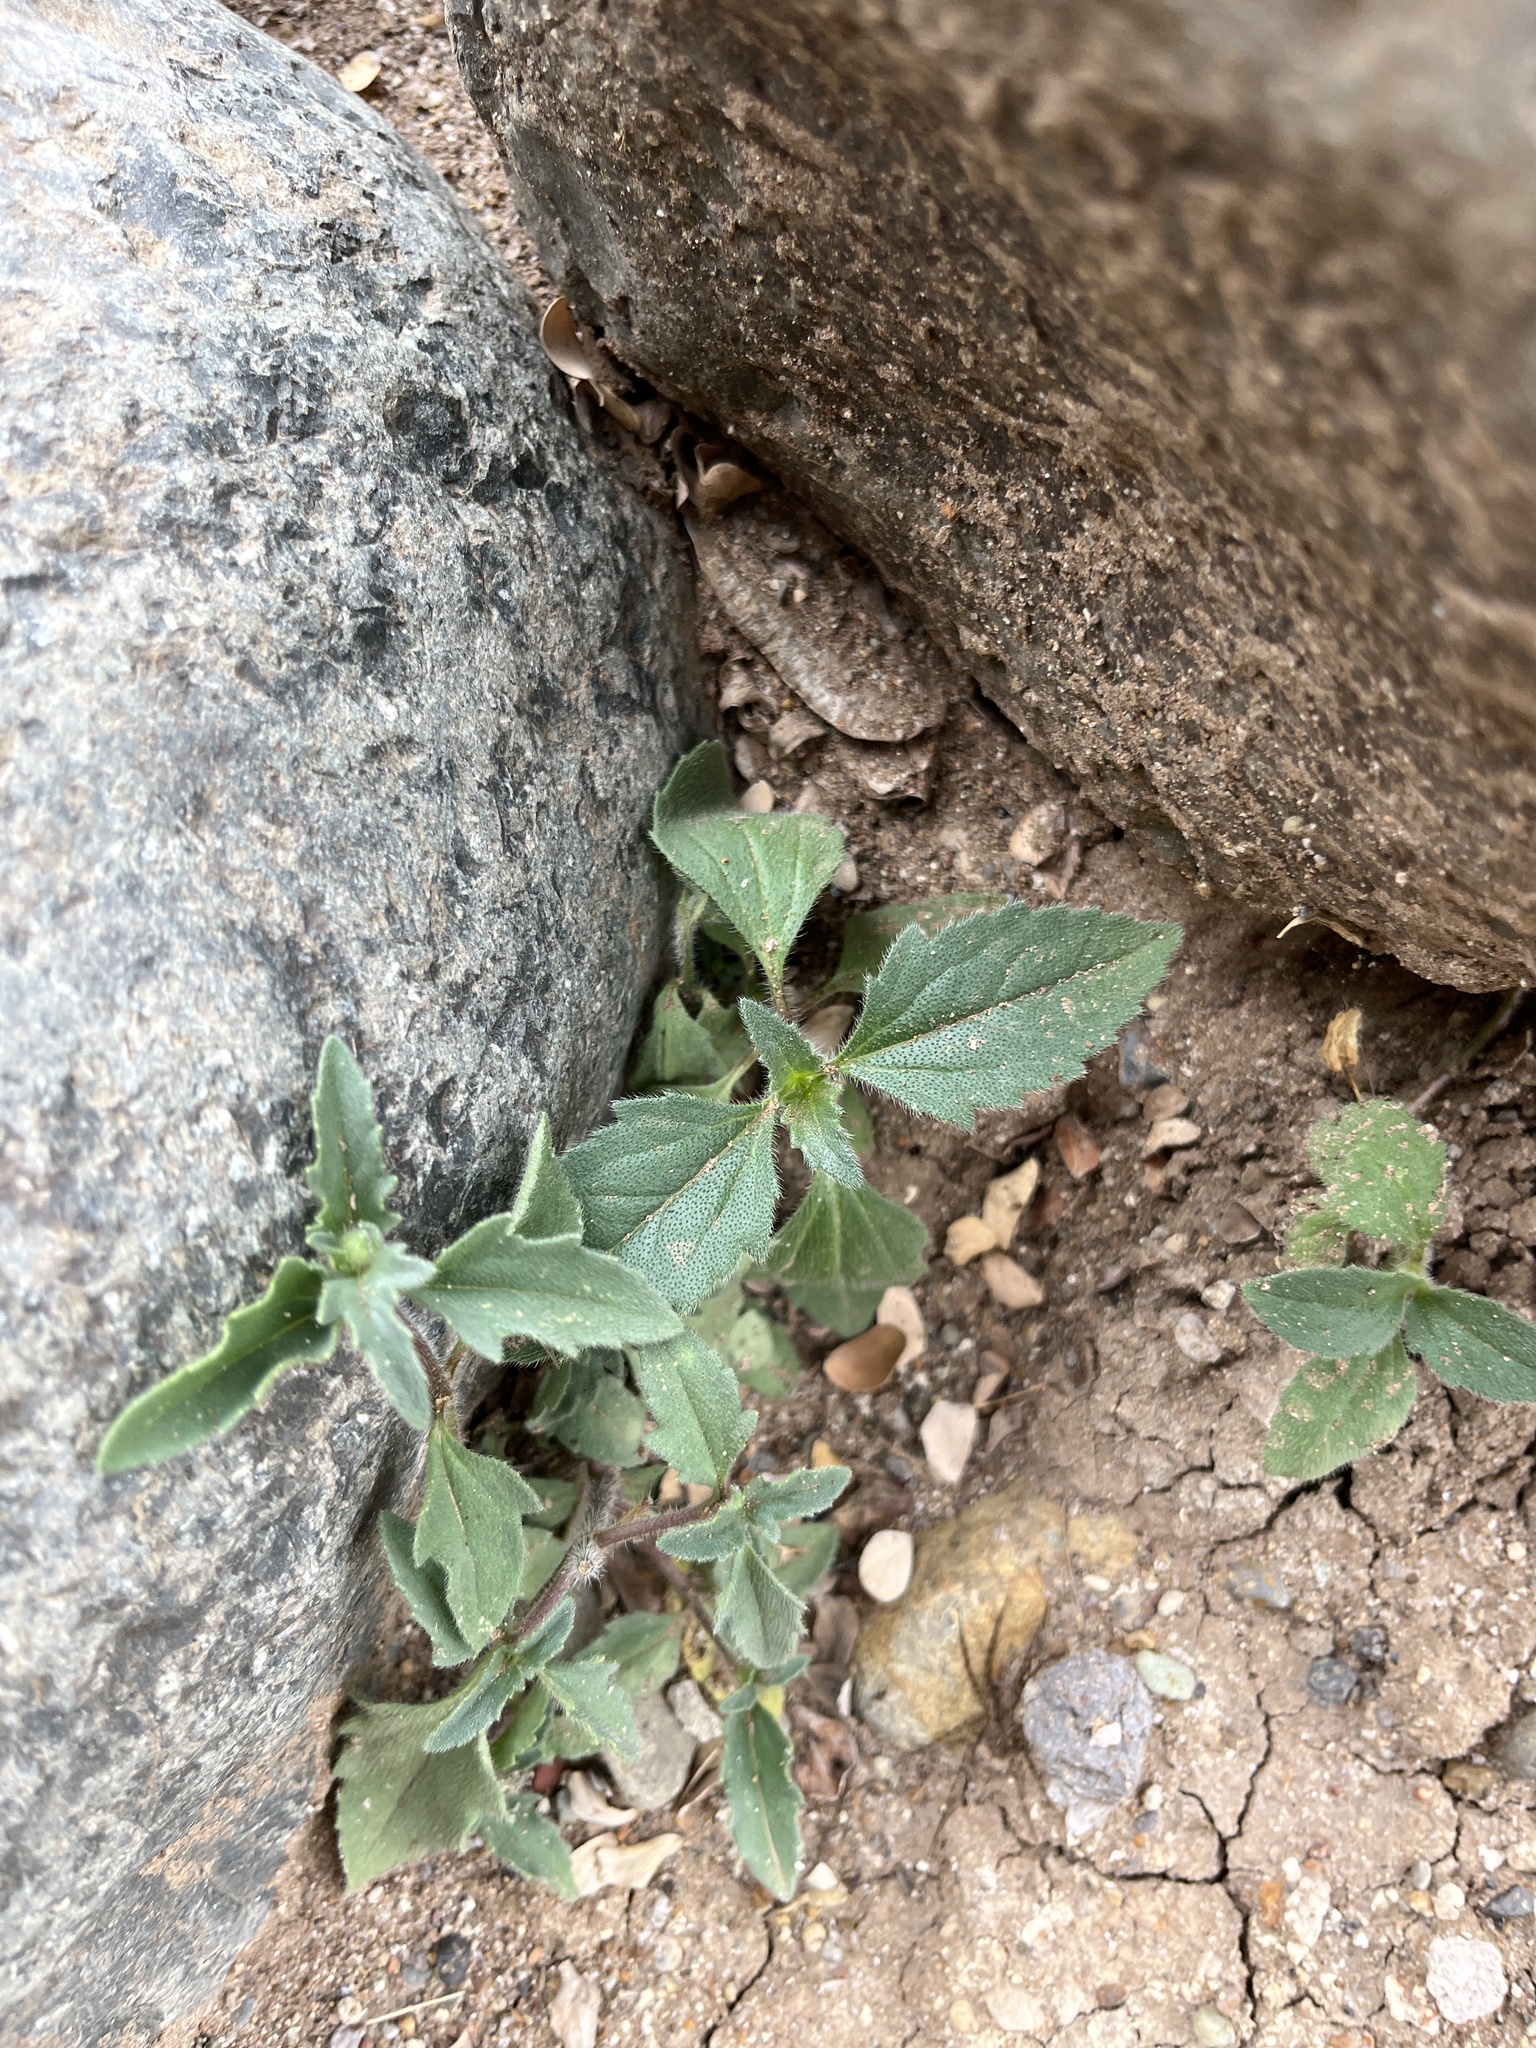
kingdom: Plantae
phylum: Tracheophyta
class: Magnoliopsida
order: Asterales
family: Asteraceae
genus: Tridax
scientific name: Tridax procumbens
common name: Coatbuttons
